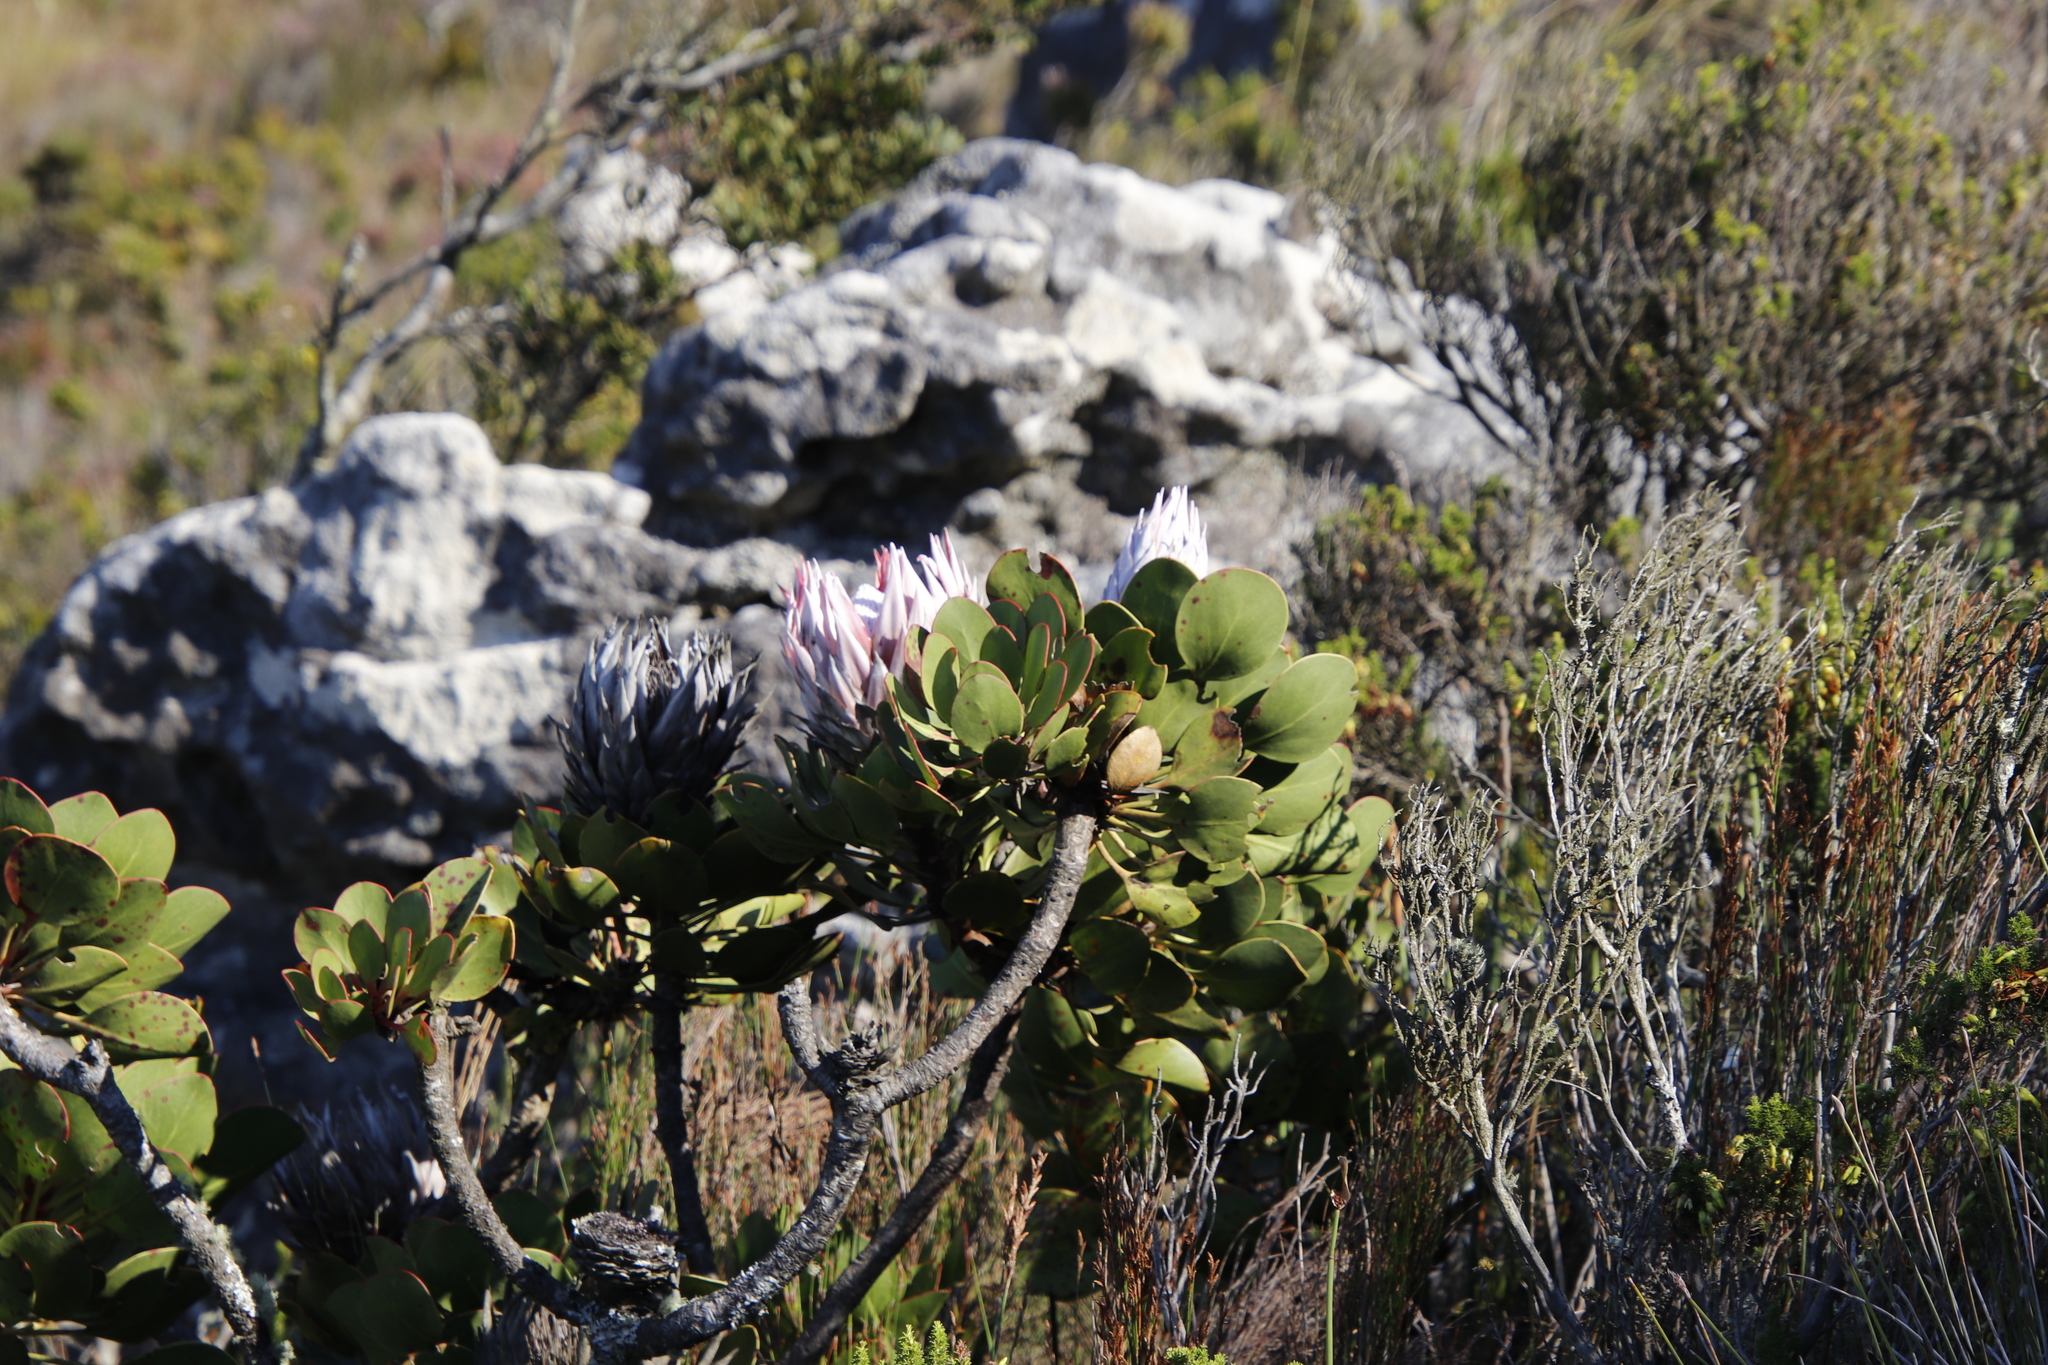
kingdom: Plantae
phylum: Tracheophyta
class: Magnoliopsida
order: Proteales
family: Proteaceae
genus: Protea
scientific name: Protea cynaroides
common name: King protea
